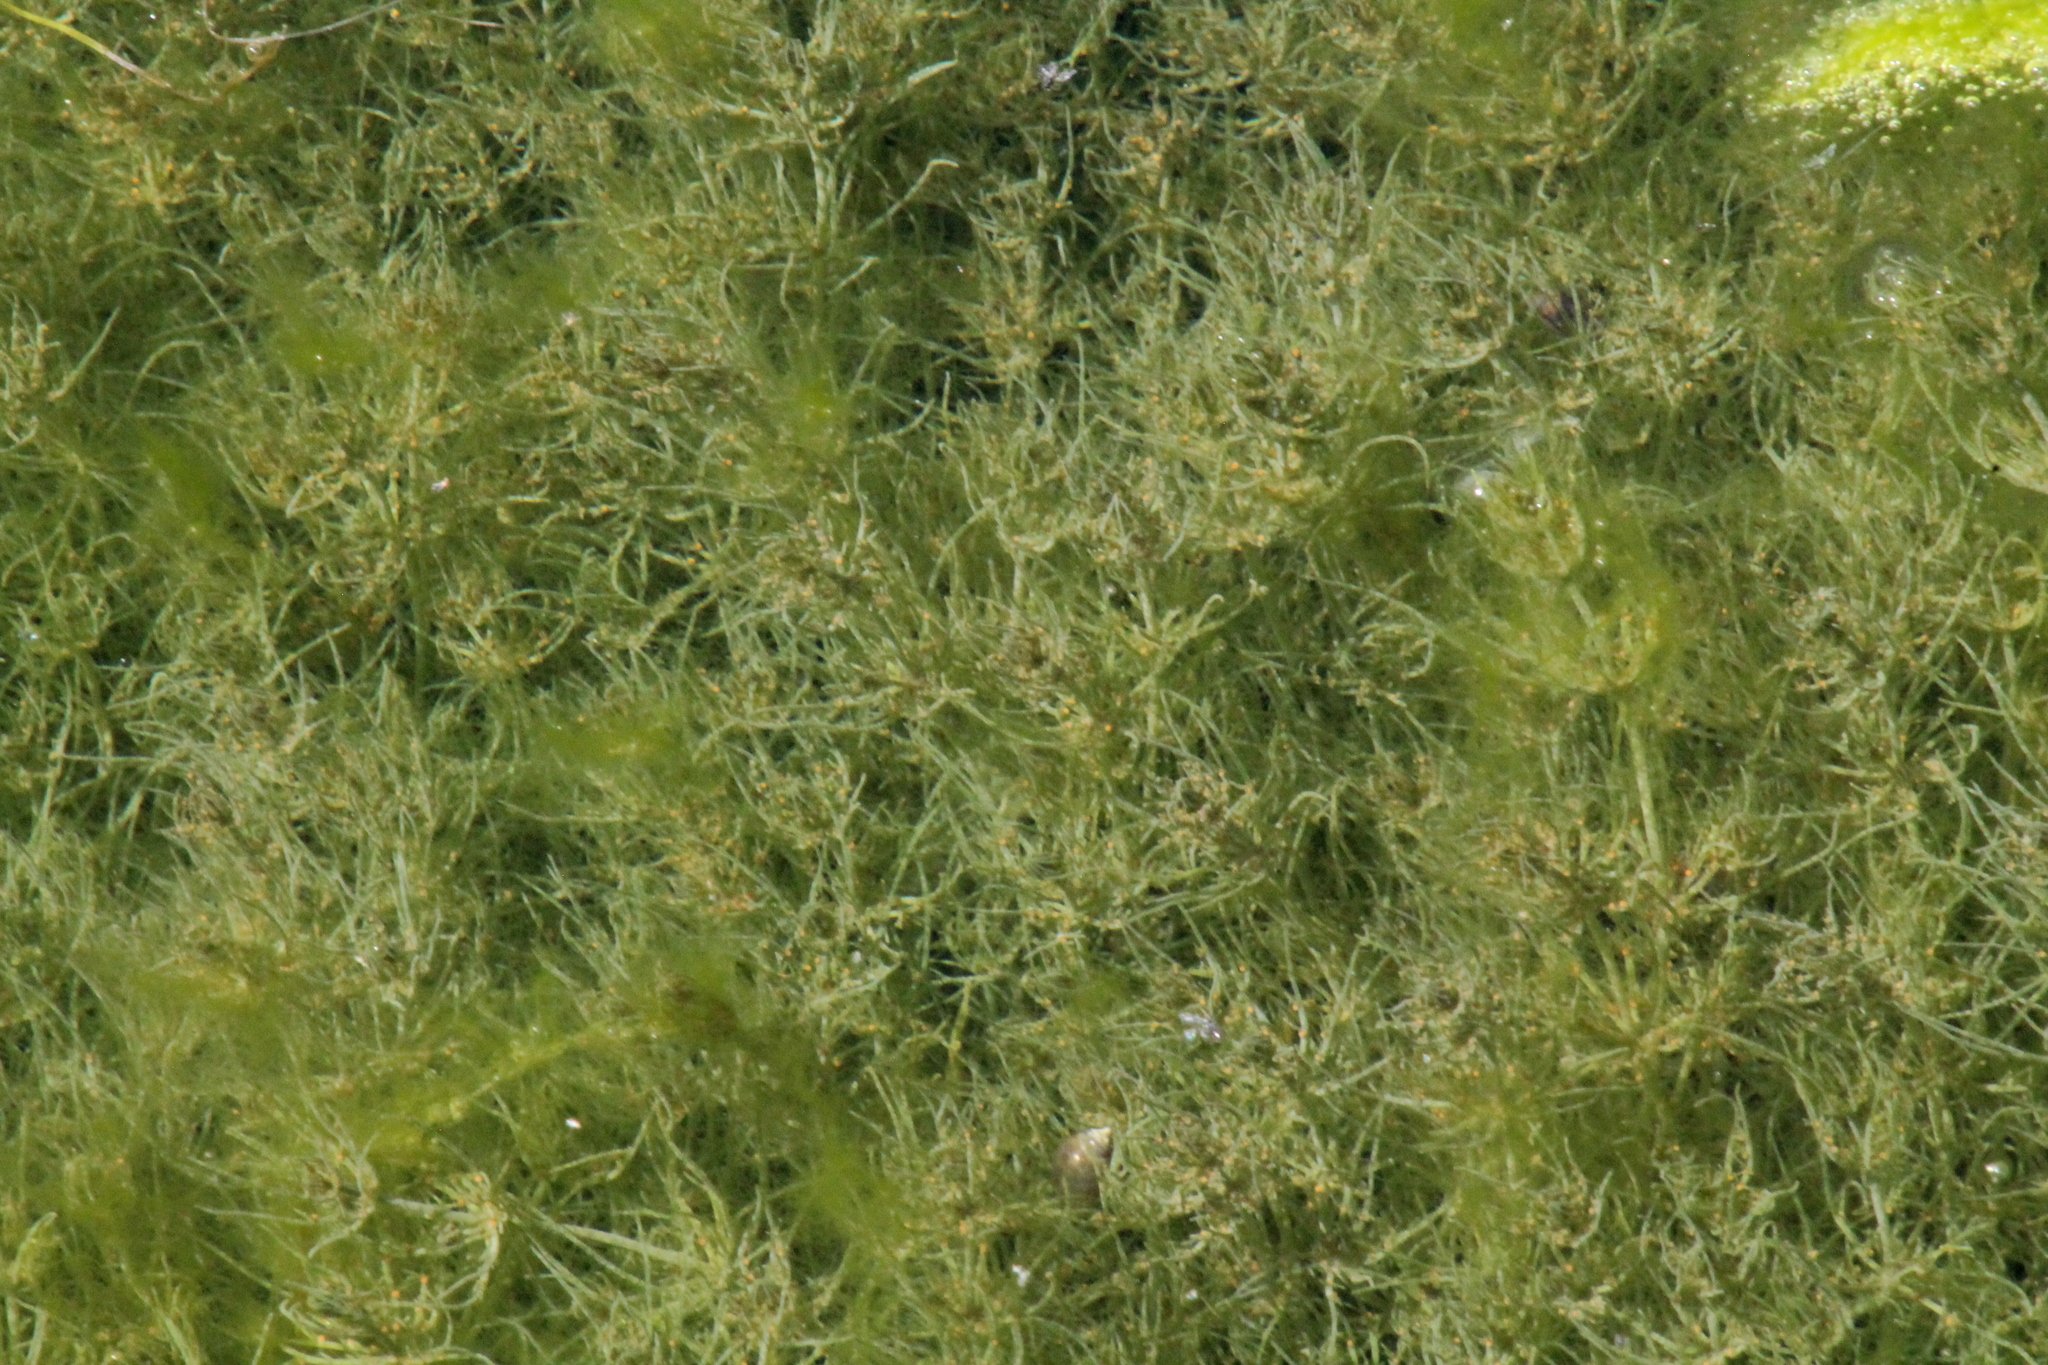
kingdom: Plantae
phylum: Charophyta
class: Charophyceae
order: Charales
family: Characeae
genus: Chara
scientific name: Chara
